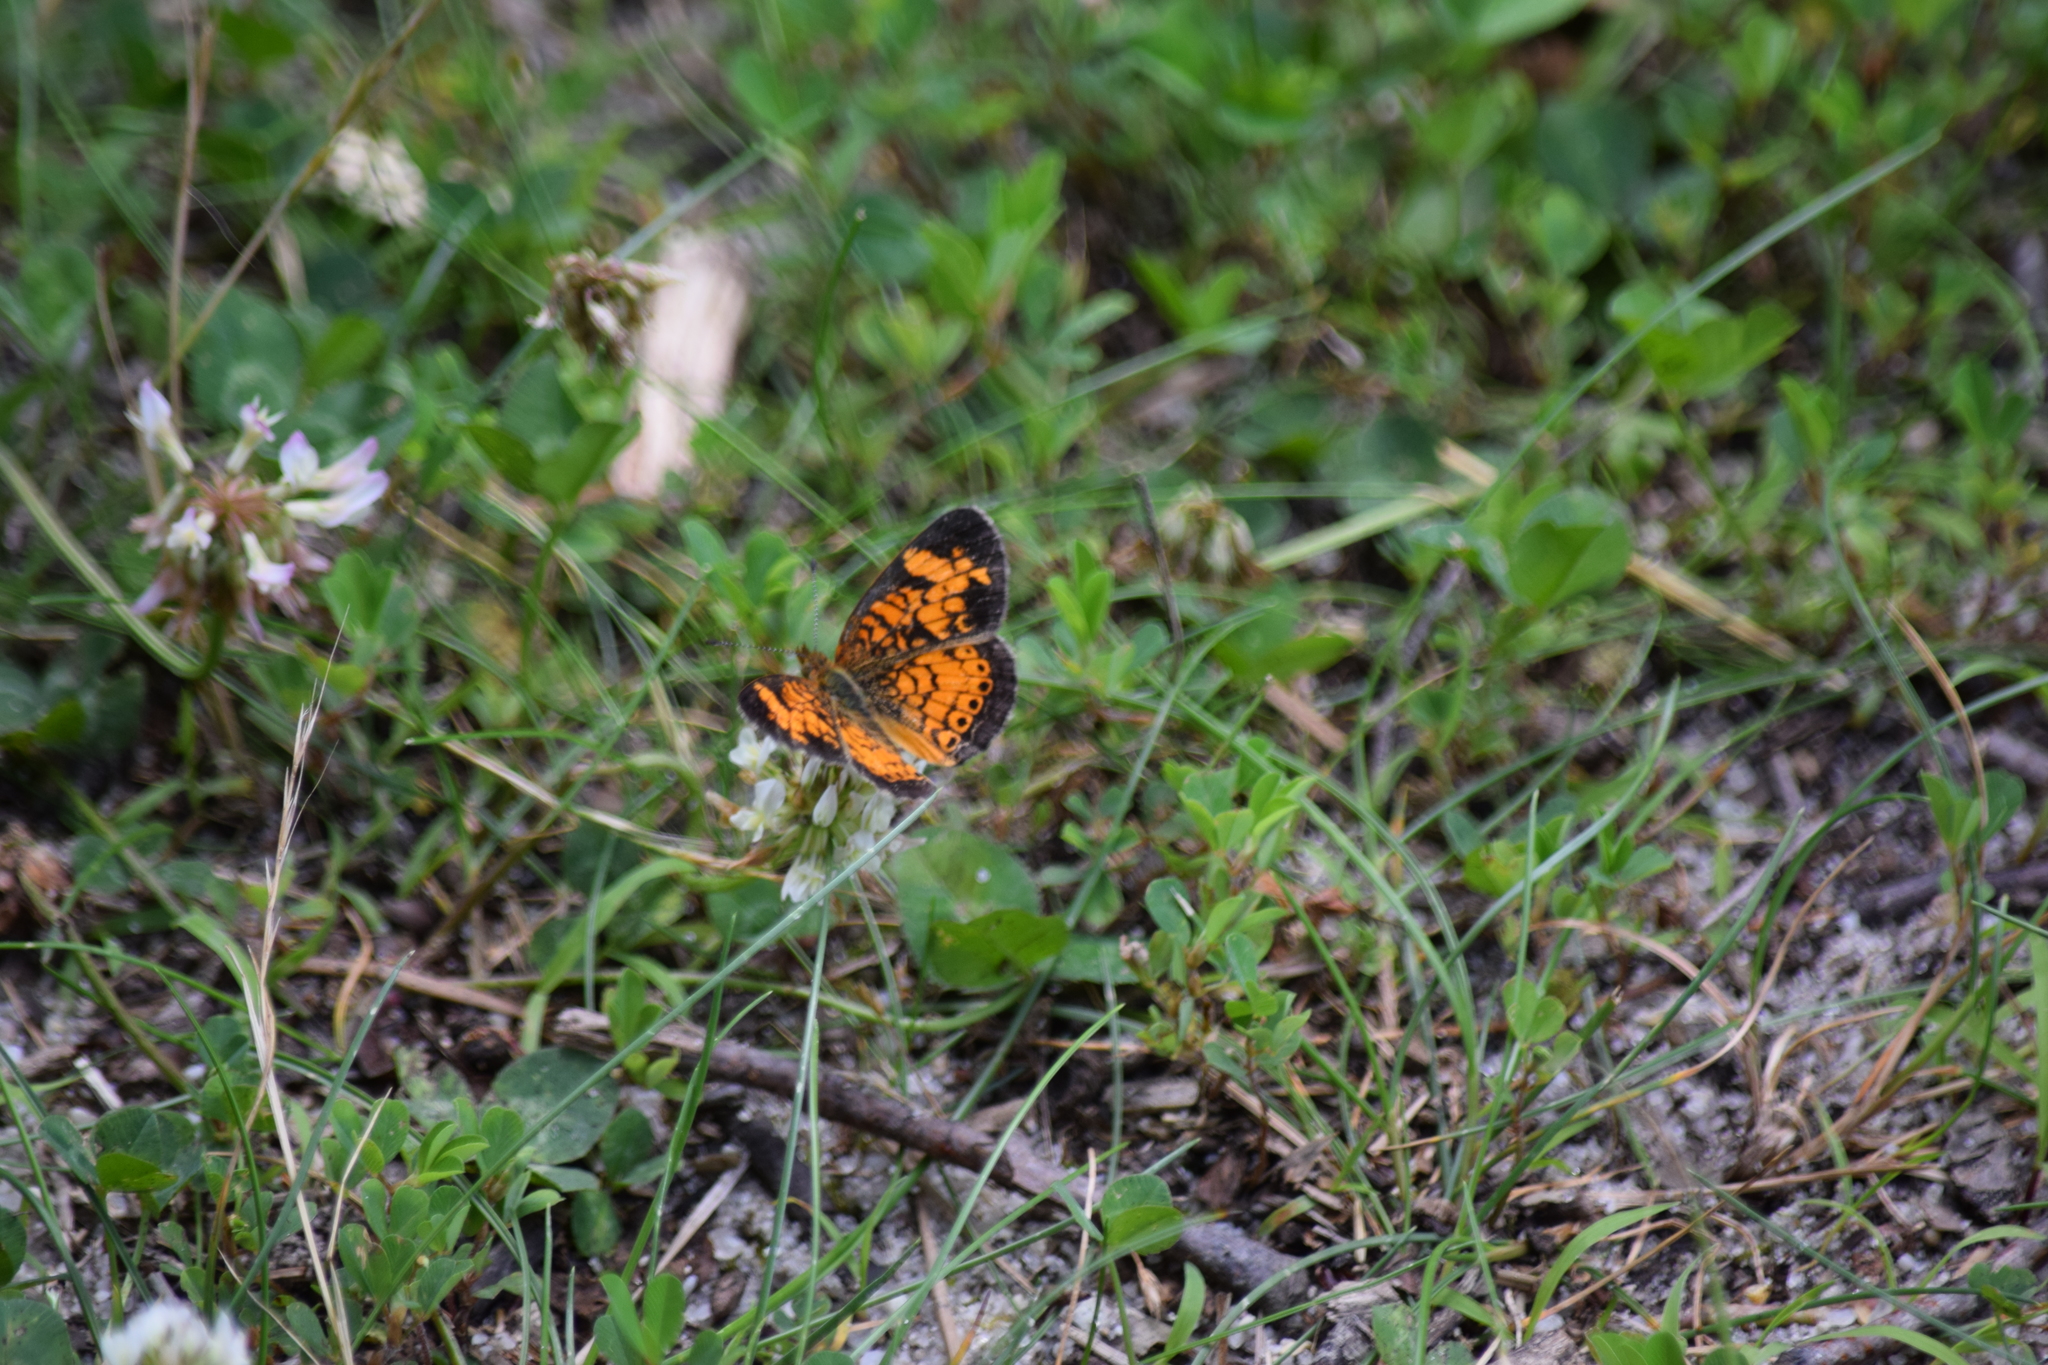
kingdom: Animalia
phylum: Arthropoda
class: Insecta
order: Lepidoptera
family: Nymphalidae
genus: Phyciodes
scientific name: Phyciodes tharos
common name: Pearl crescent
